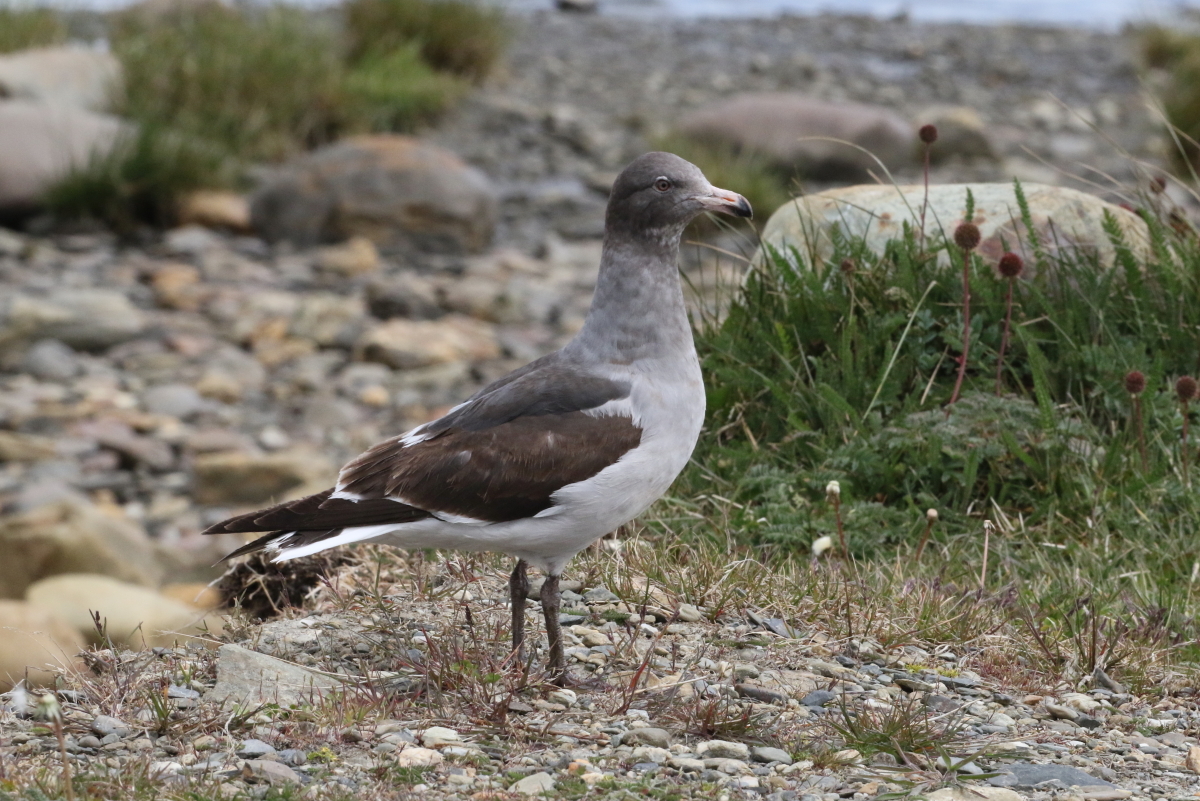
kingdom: Animalia
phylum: Chordata
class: Aves
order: Charadriiformes
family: Laridae
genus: Leucophaeus
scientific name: Leucophaeus scoresbii
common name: Dolphin gull
